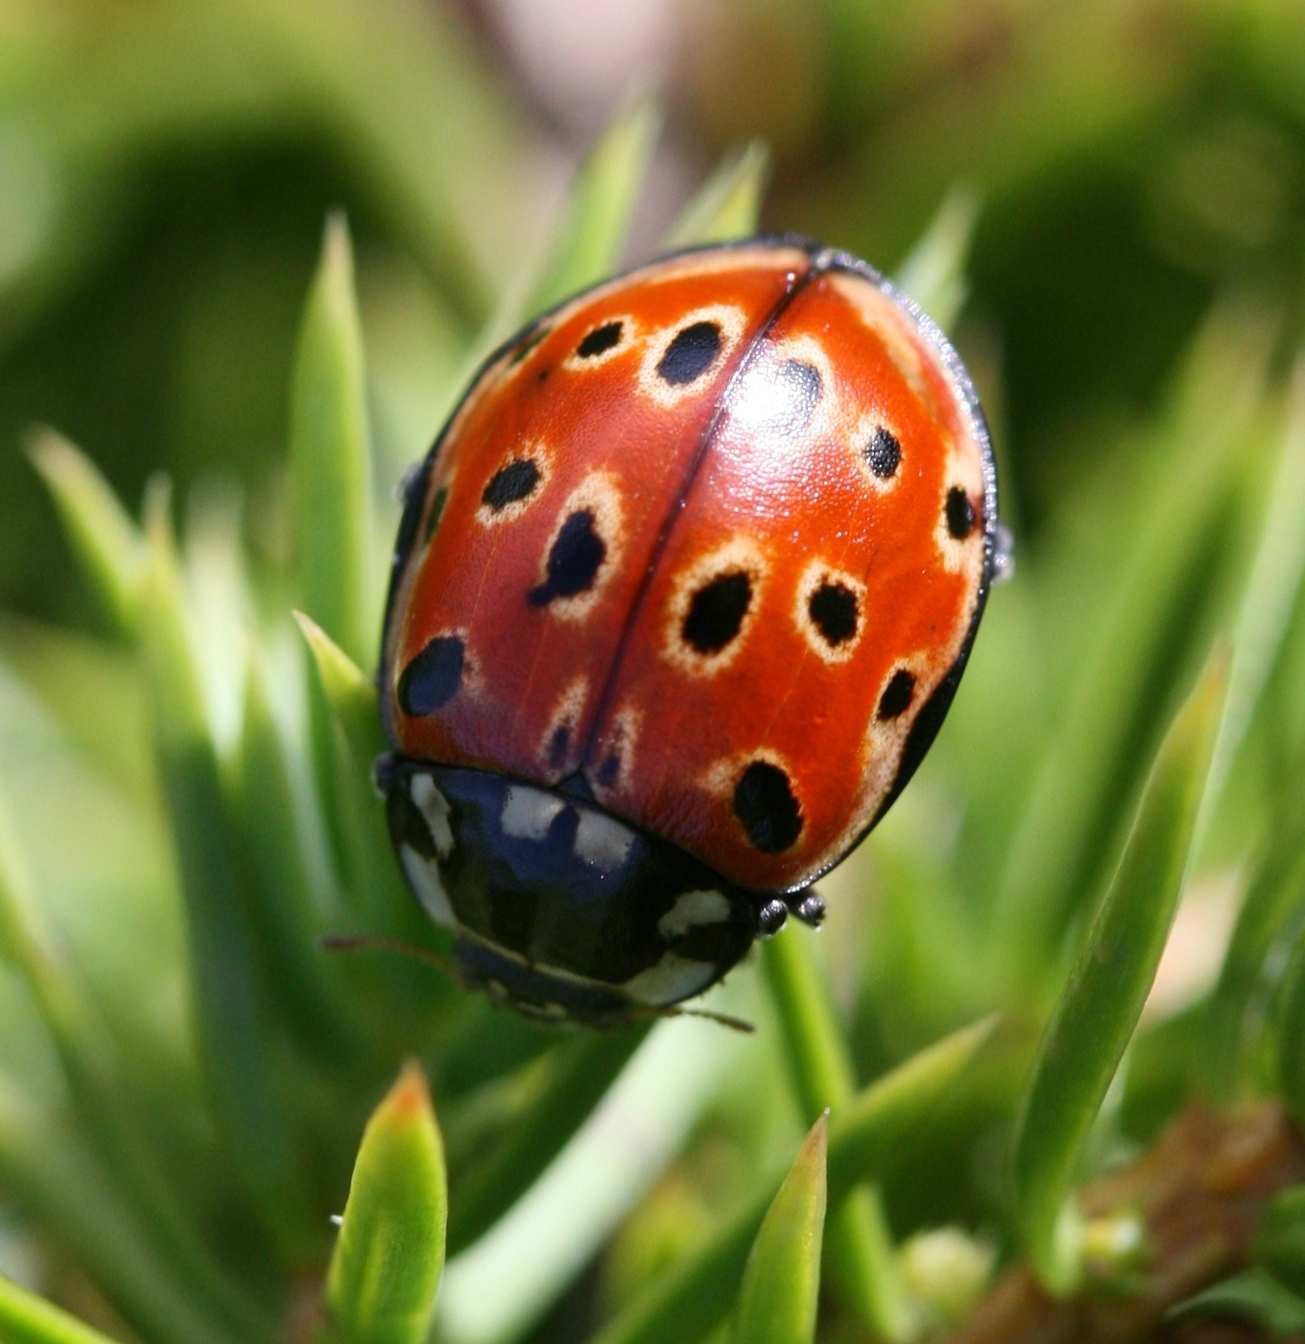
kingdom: Animalia
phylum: Arthropoda
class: Insecta
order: Coleoptera
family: Coccinellidae
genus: Anatis
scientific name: Anatis ocellata
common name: Eyed ladybird
